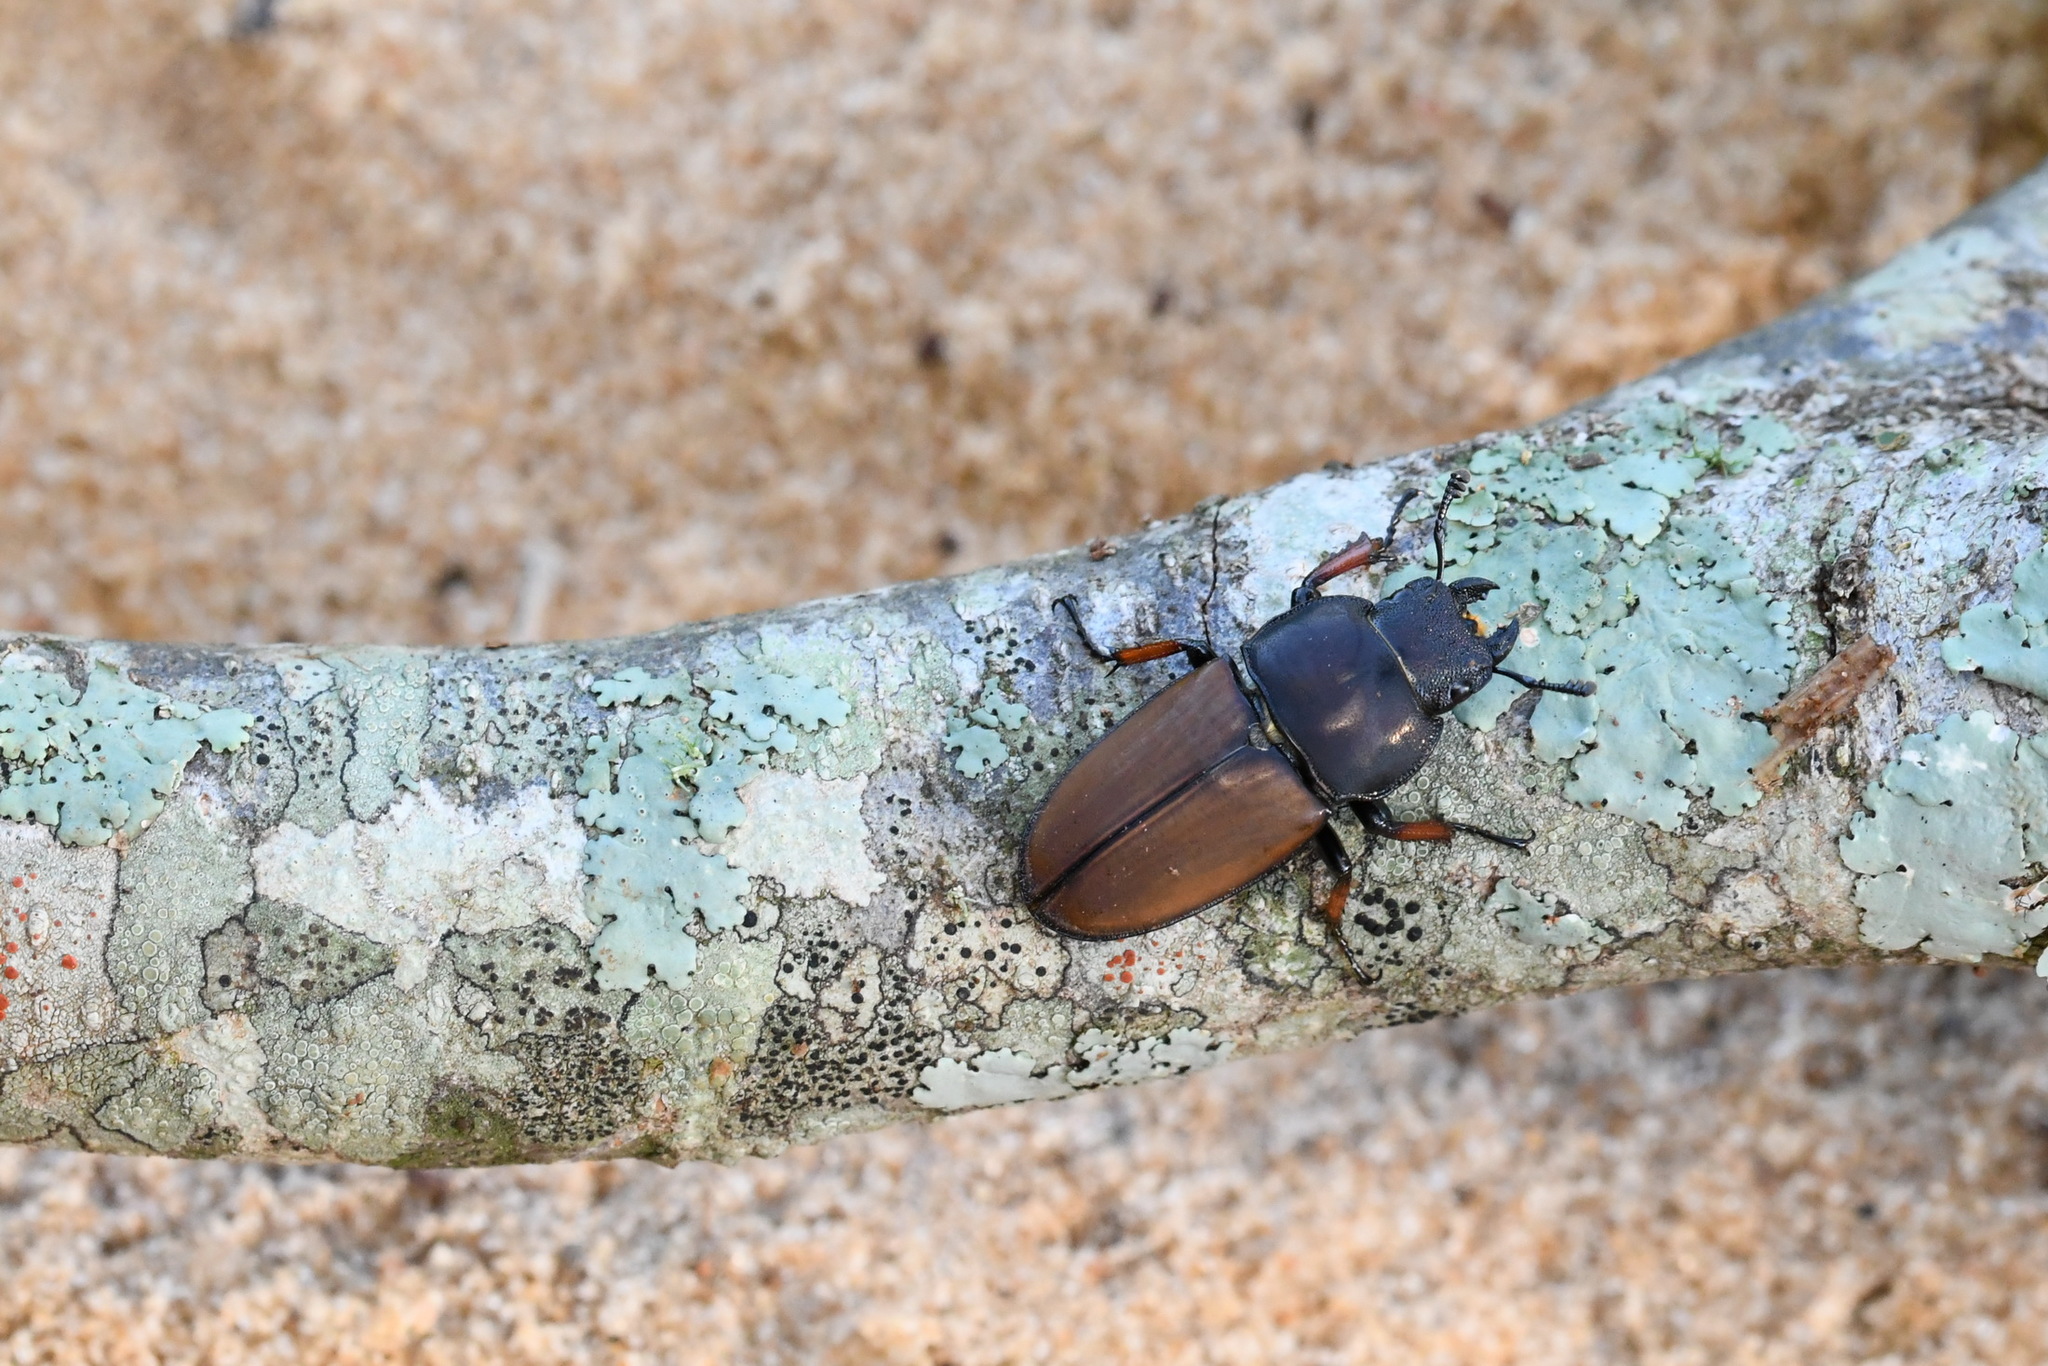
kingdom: Animalia
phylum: Arthropoda
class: Insecta
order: Coleoptera
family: Lucanidae
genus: Leptinopterus
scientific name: Leptinopterus tibialis
